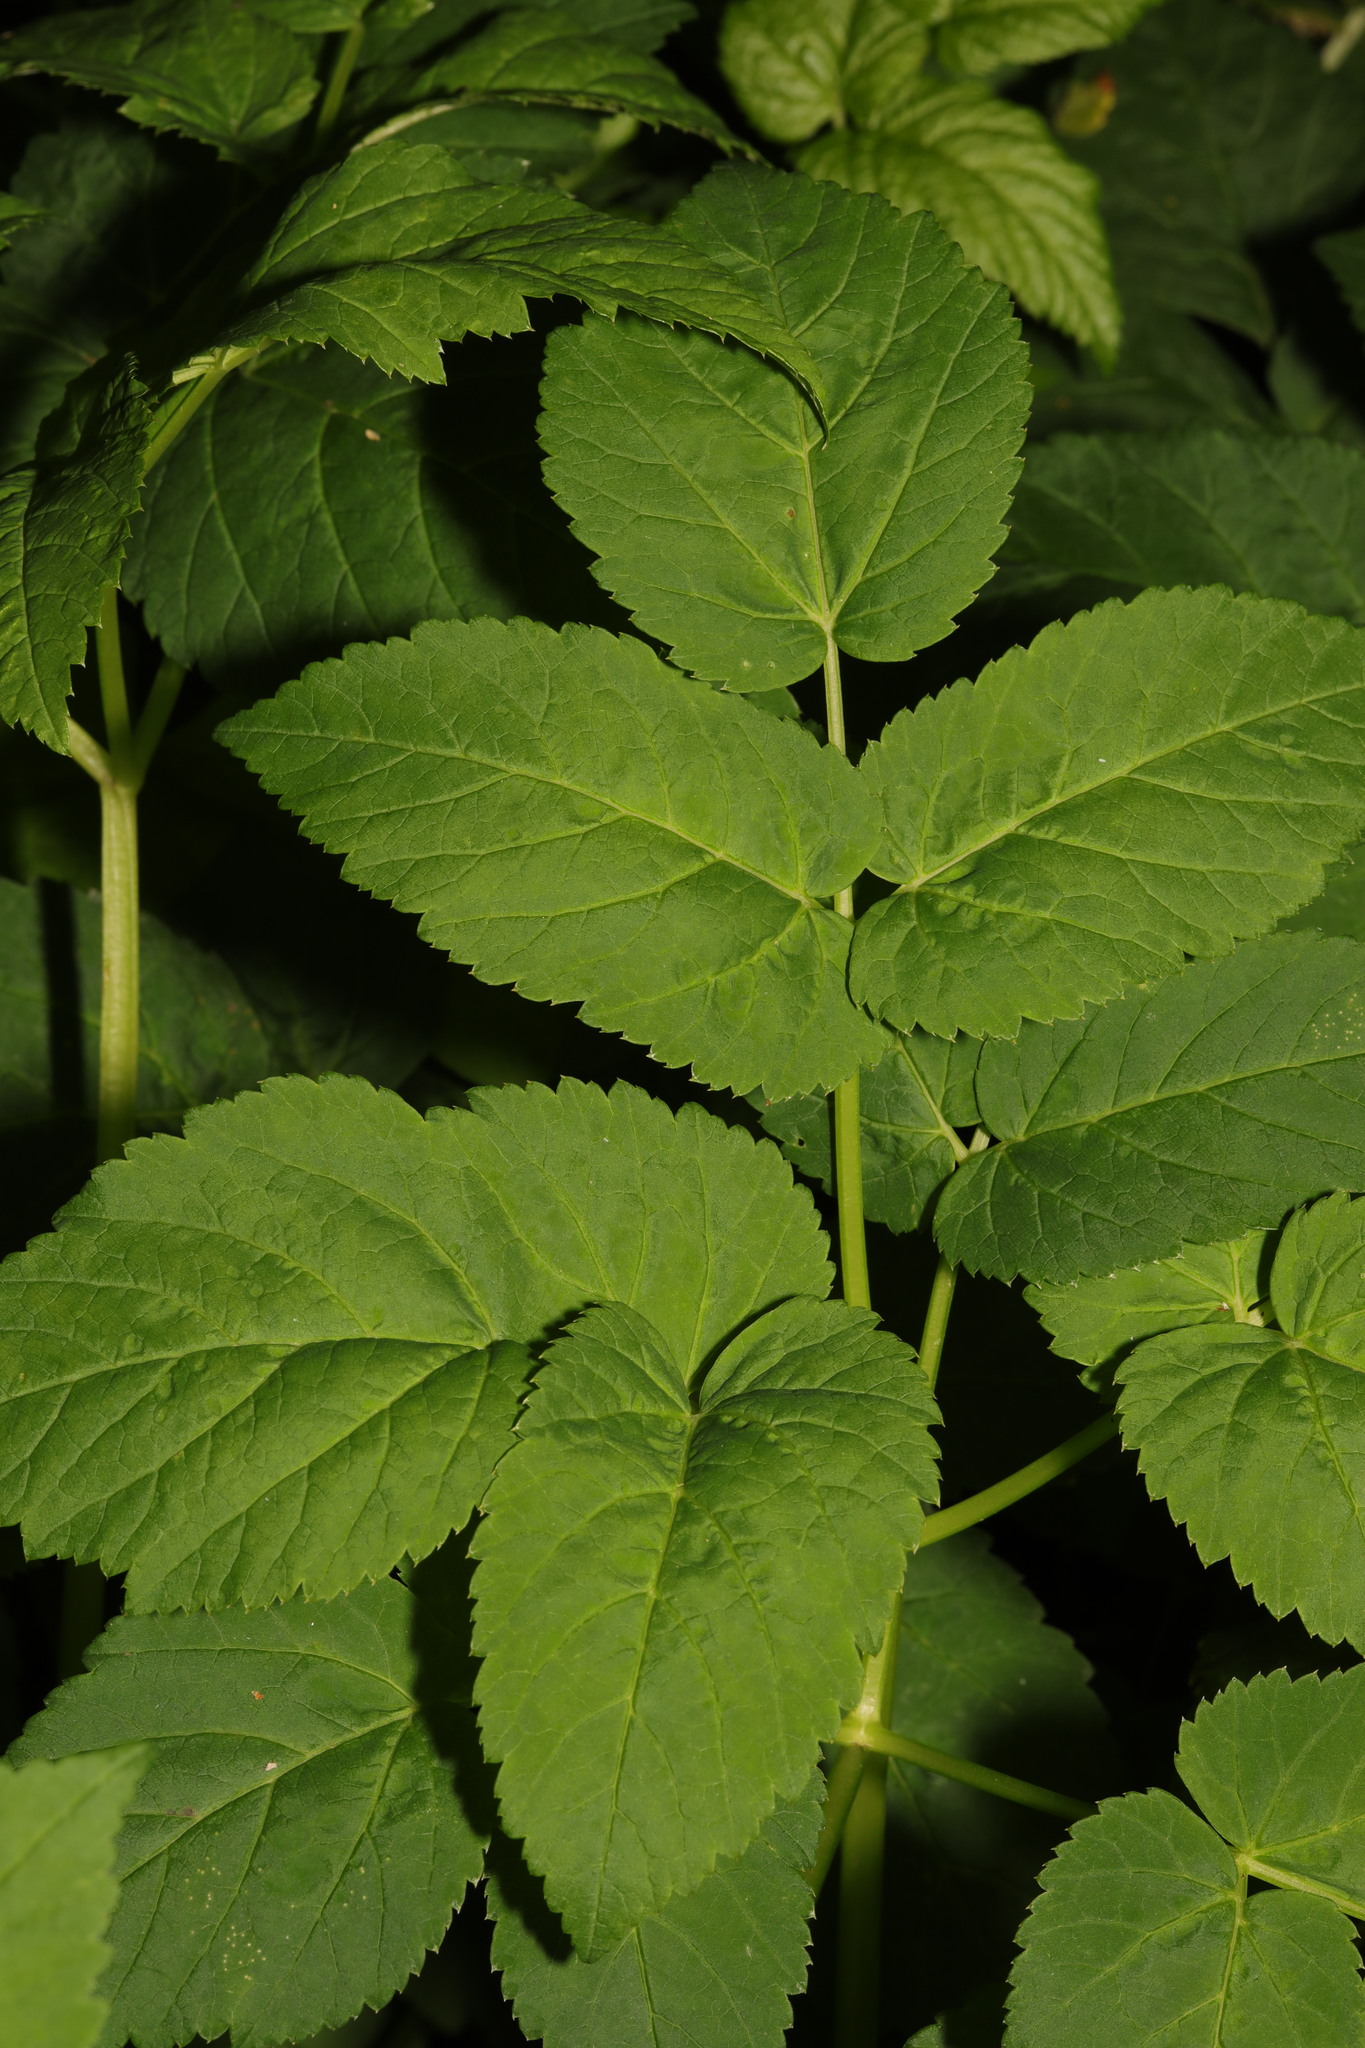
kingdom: Plantae
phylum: Tracheophyta
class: Magnoliopsida
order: Apiales
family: Apiaceae
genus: Aegopodium
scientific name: Aegopodium podagraria
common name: Ground-elder
